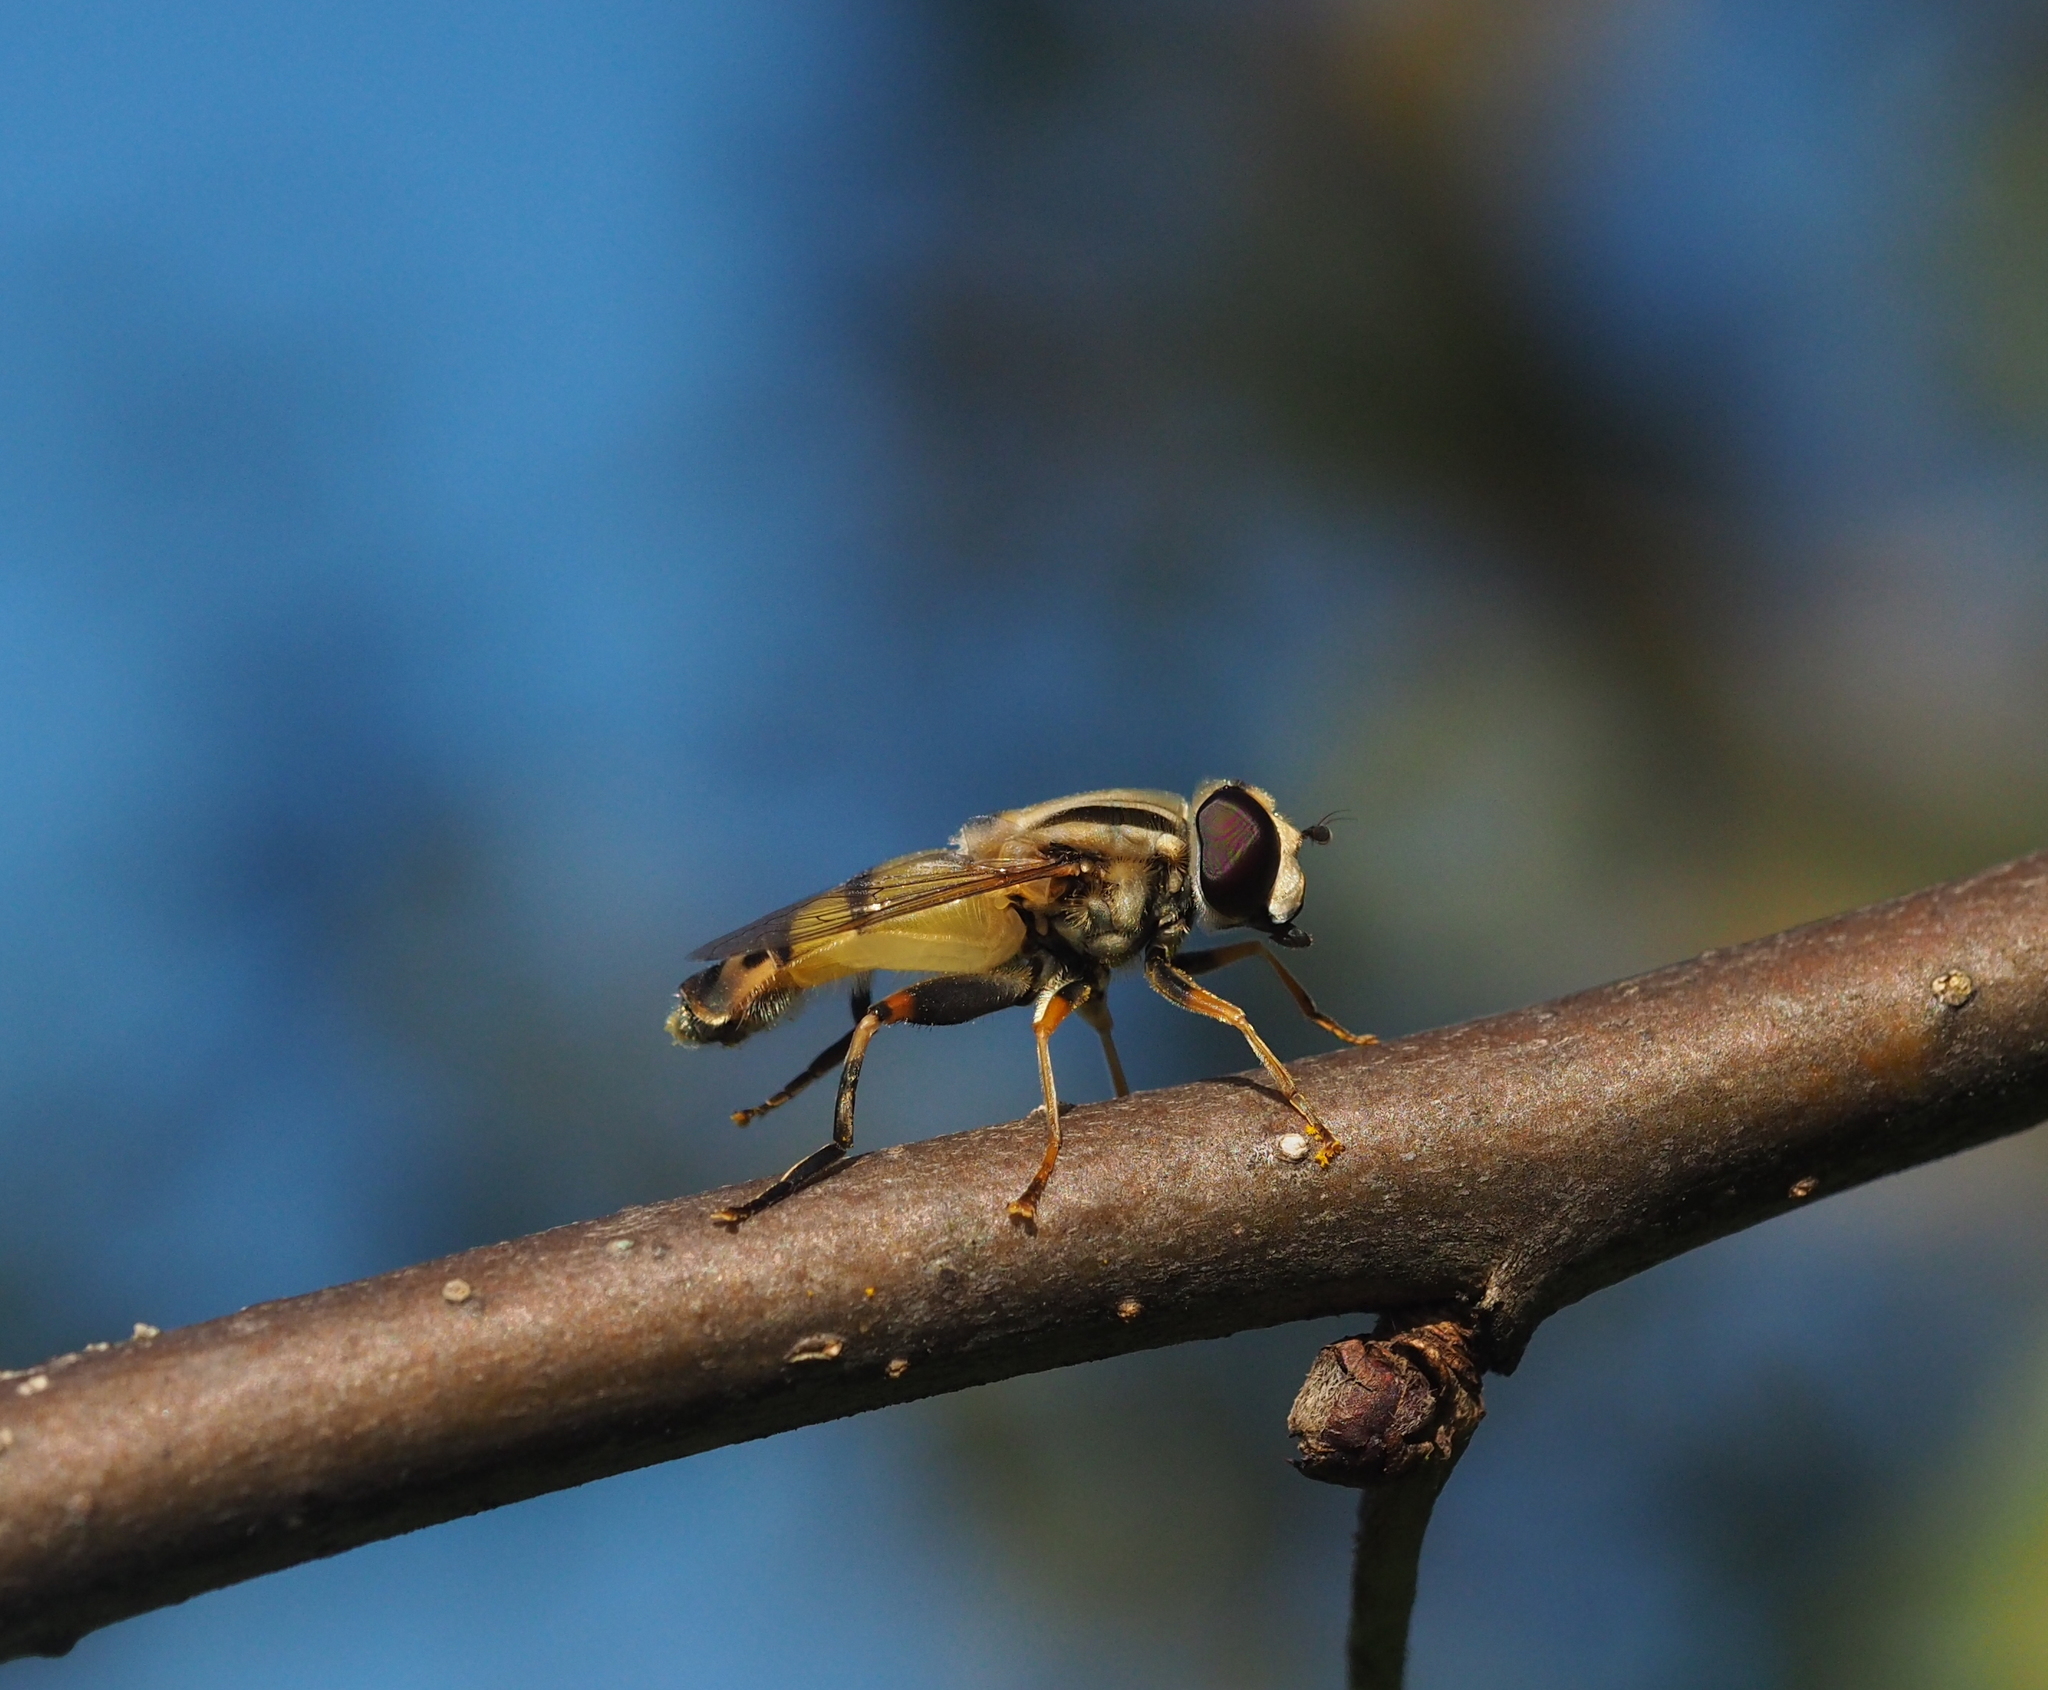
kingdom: Animalia
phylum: Arthropoda
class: Insecta
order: Diptera
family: Syrphidae
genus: Helophilus
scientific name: Helophilus trivittatus
